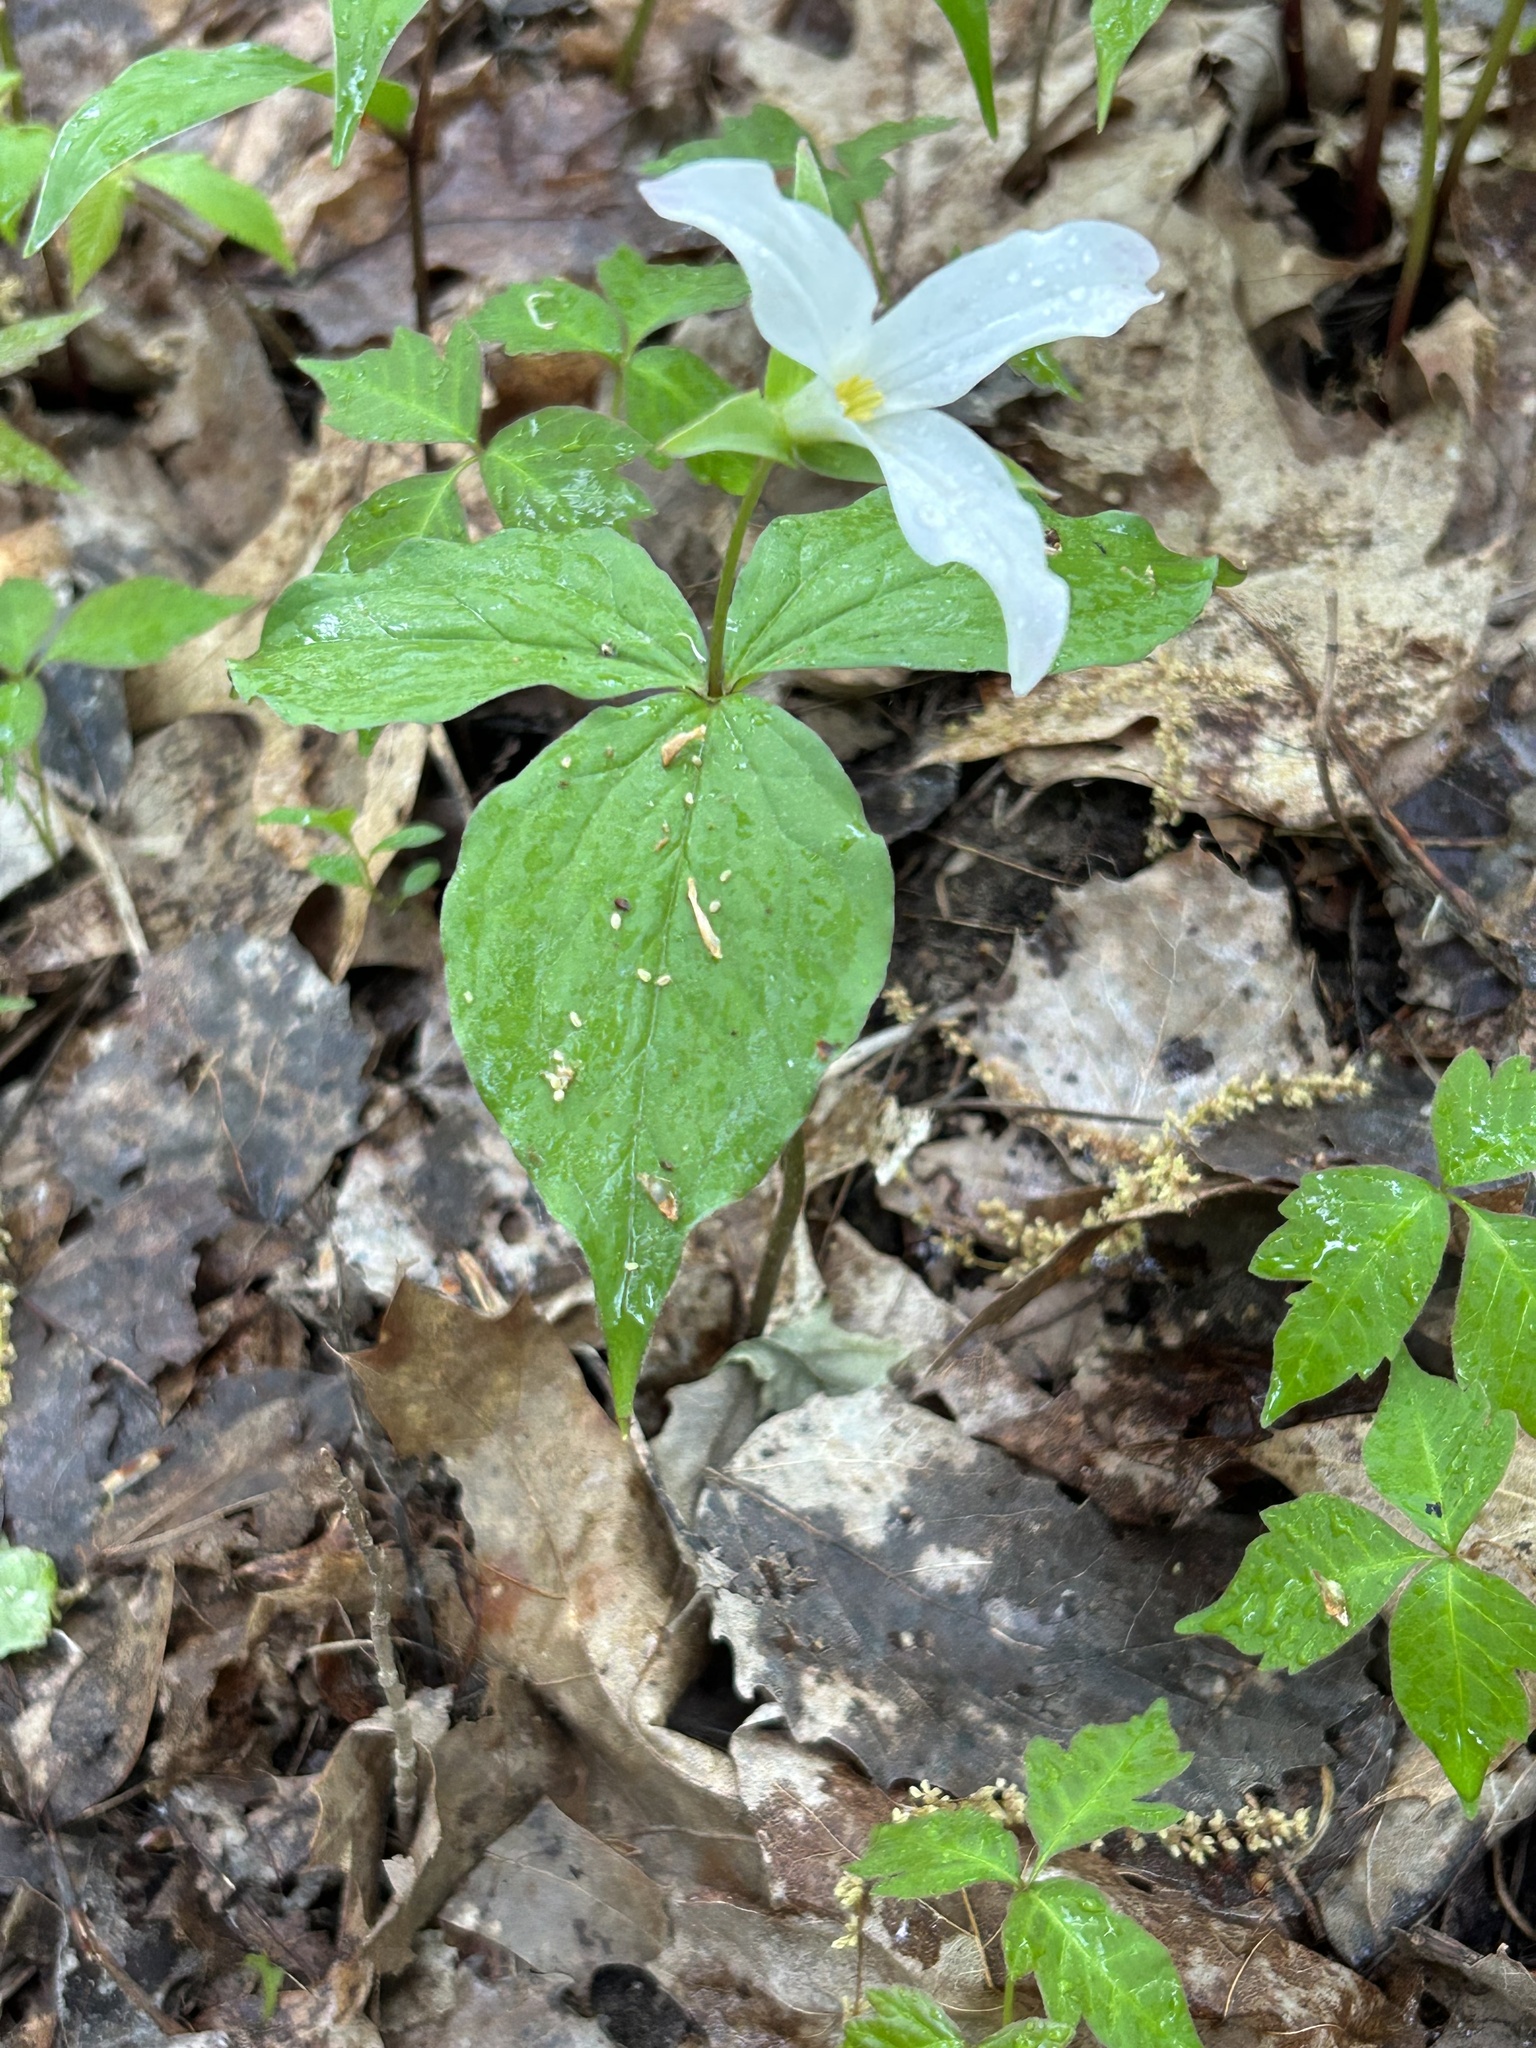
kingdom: Plantae
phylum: Tracheophyta
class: Liliopsida
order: Liliales
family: Melanthiaceae
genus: Trillium
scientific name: Trillium grandiflorum
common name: Great white trillium
